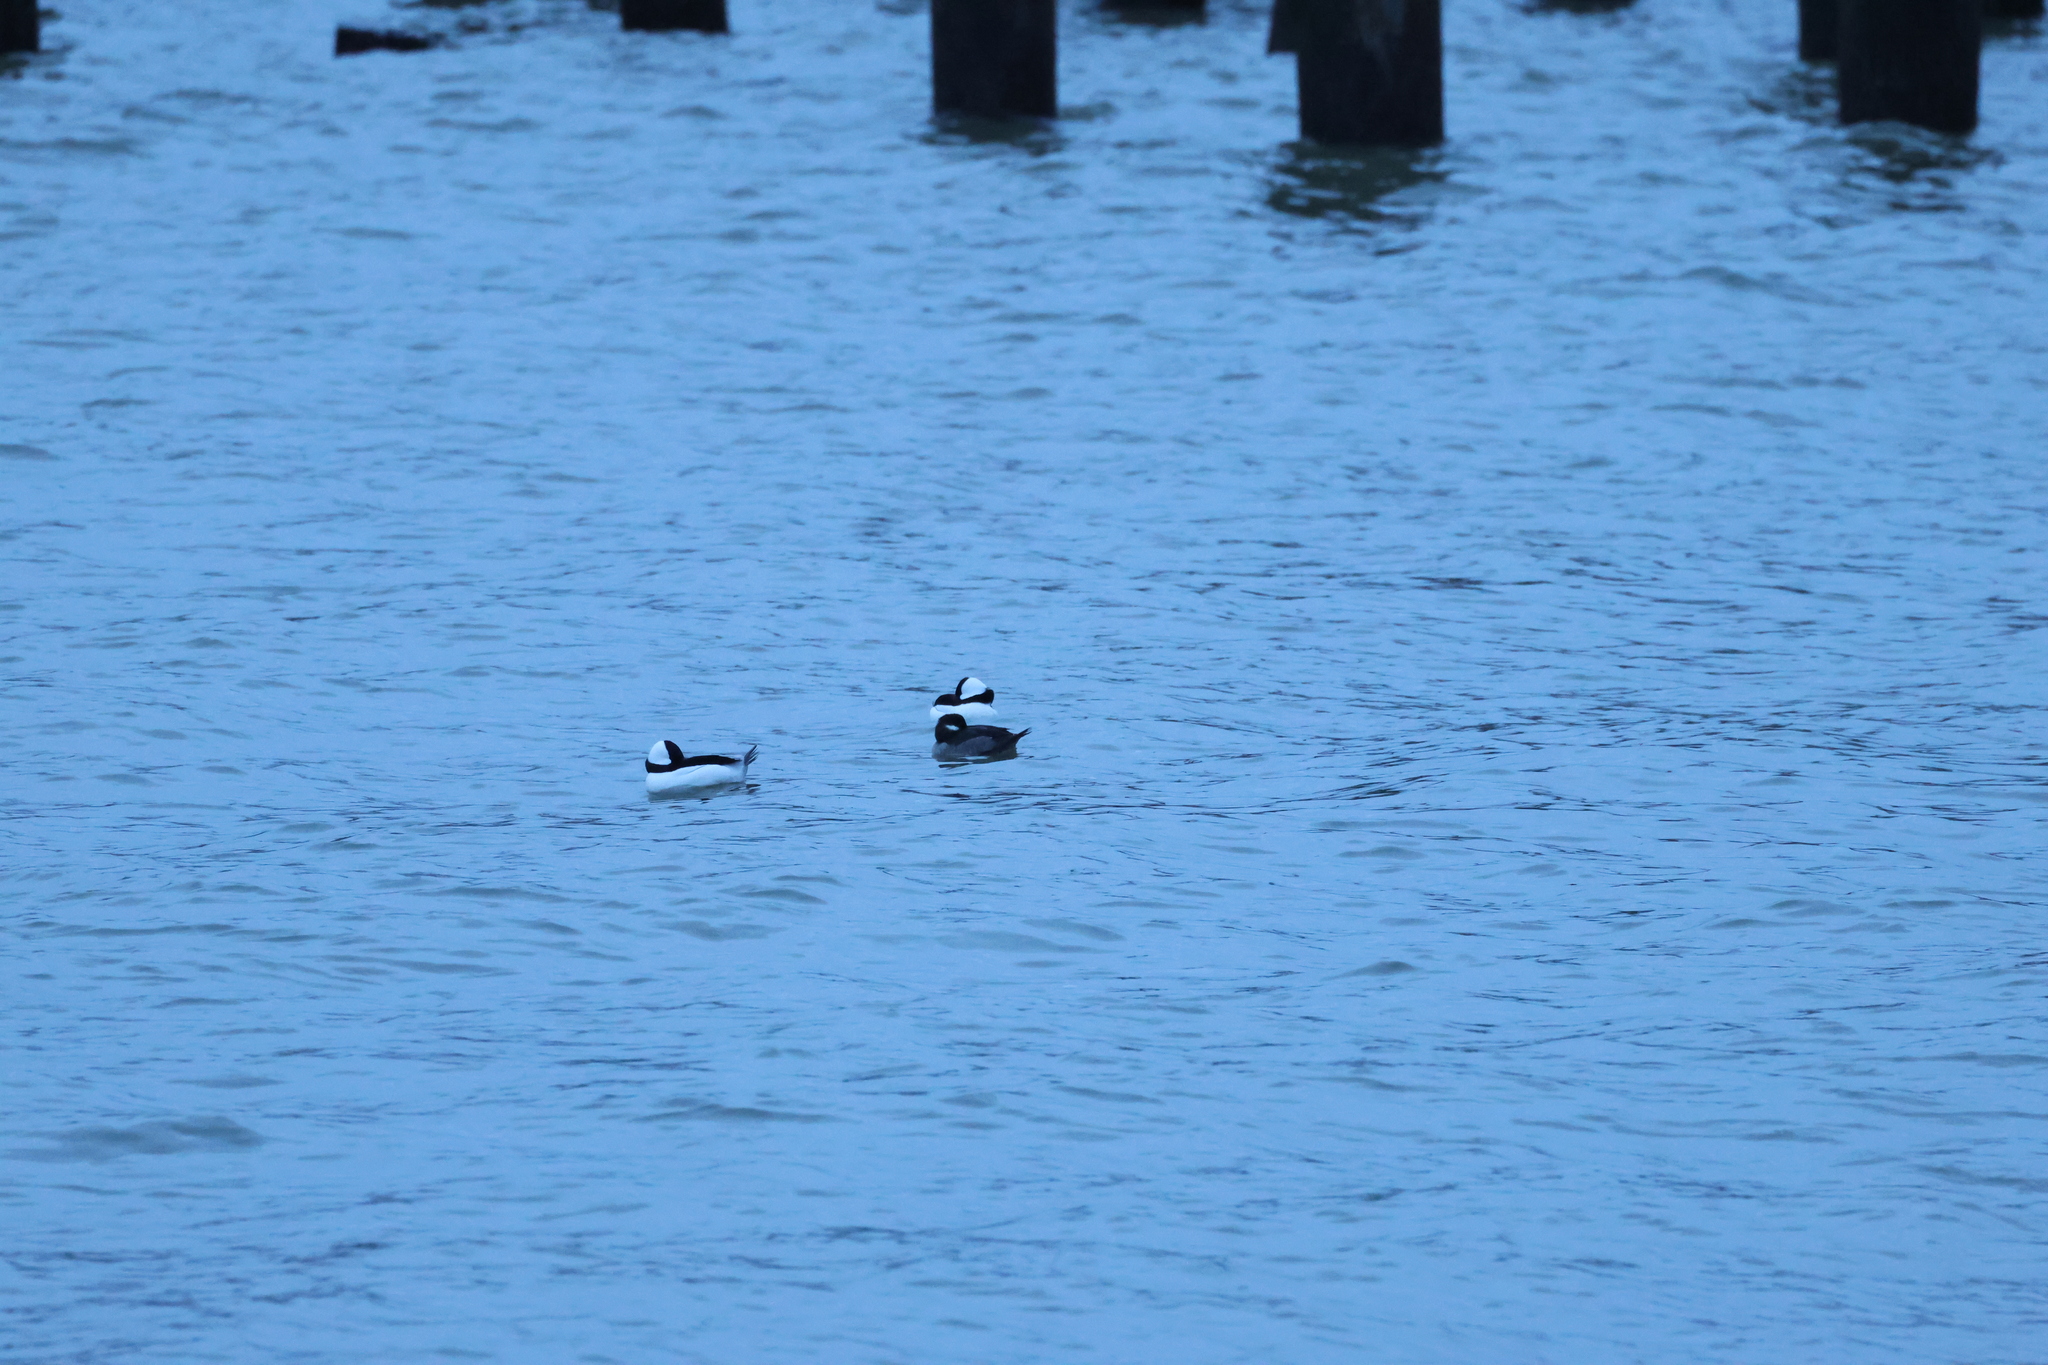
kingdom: Animalia
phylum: Chordata
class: Aves
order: Anseriformes
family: Anatidae
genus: Bucephala
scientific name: Bucephala albeola
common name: Bufflehead
